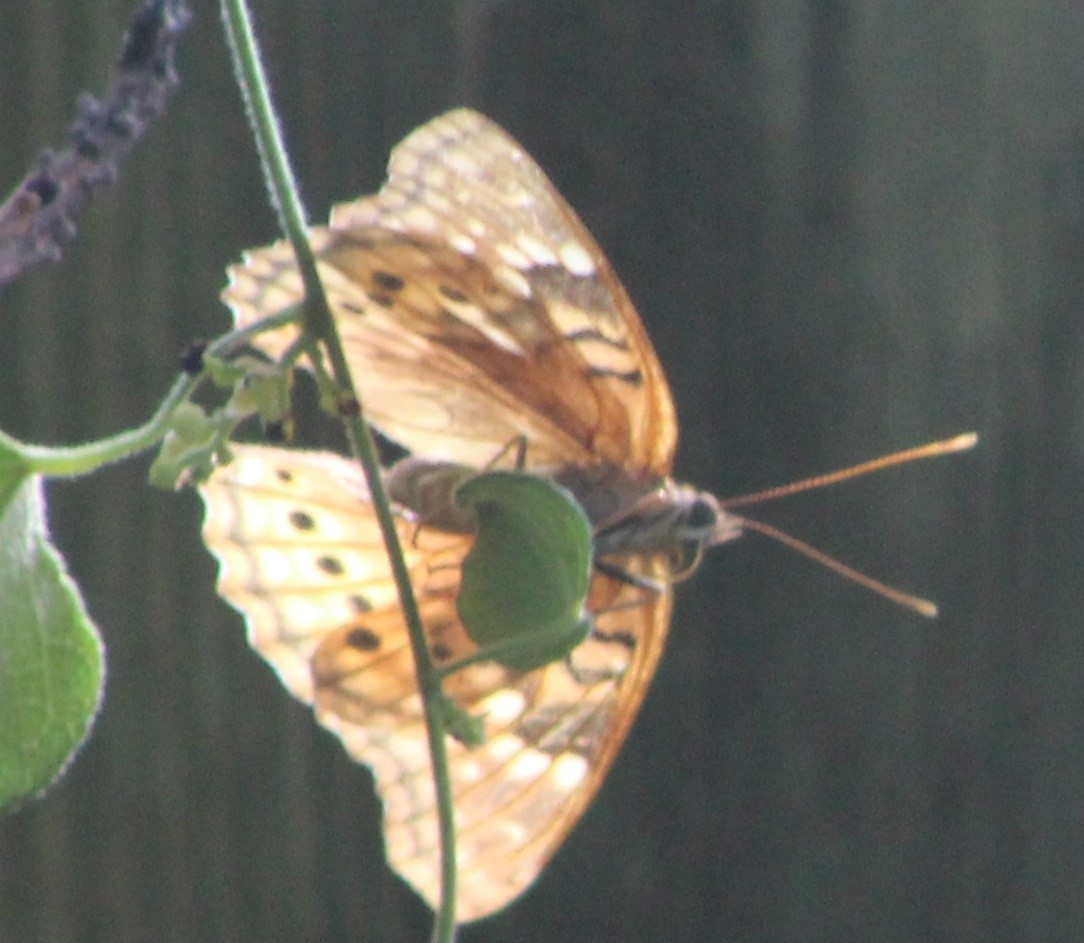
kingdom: Animalia
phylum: Arthropoda
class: Insecta
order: Lepidoptera
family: Nymphalidae
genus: Asterocampa
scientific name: Asterocampa clyton
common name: Tawny emperor
